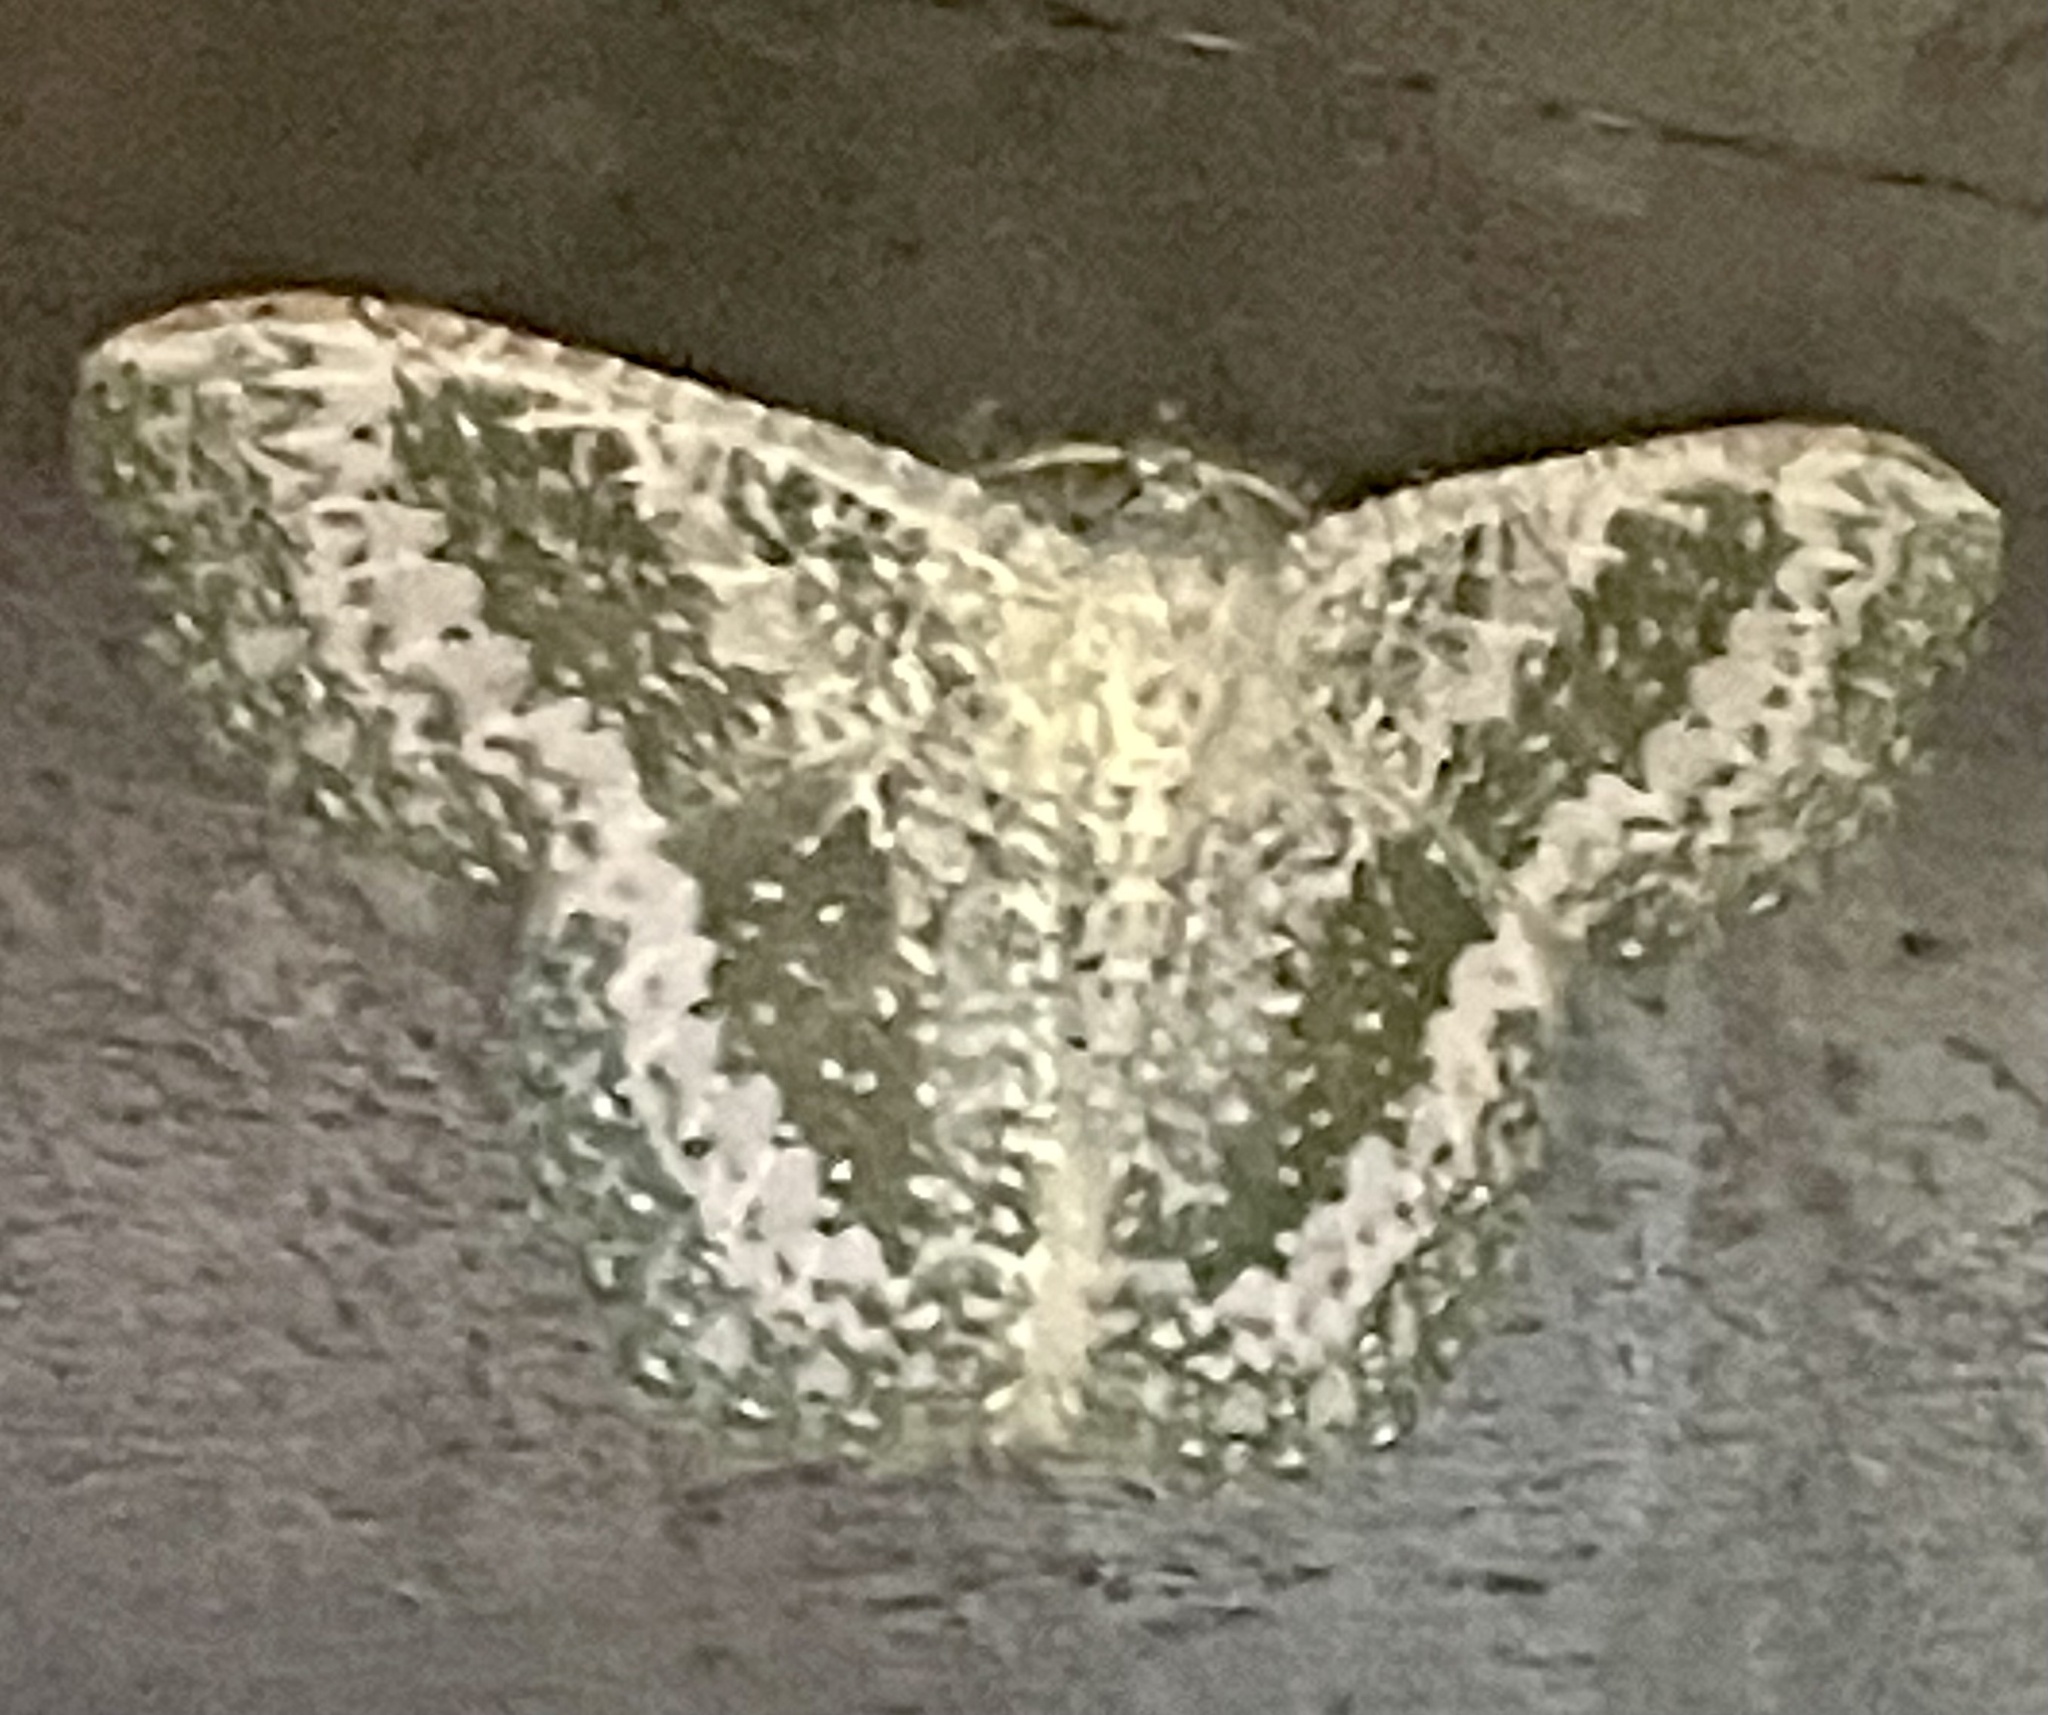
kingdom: Animalia
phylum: Arthropoda
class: Insecta
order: Lepidoptera
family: Geometridae
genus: Eucyclodes
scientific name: Eucyclodes pieroides
